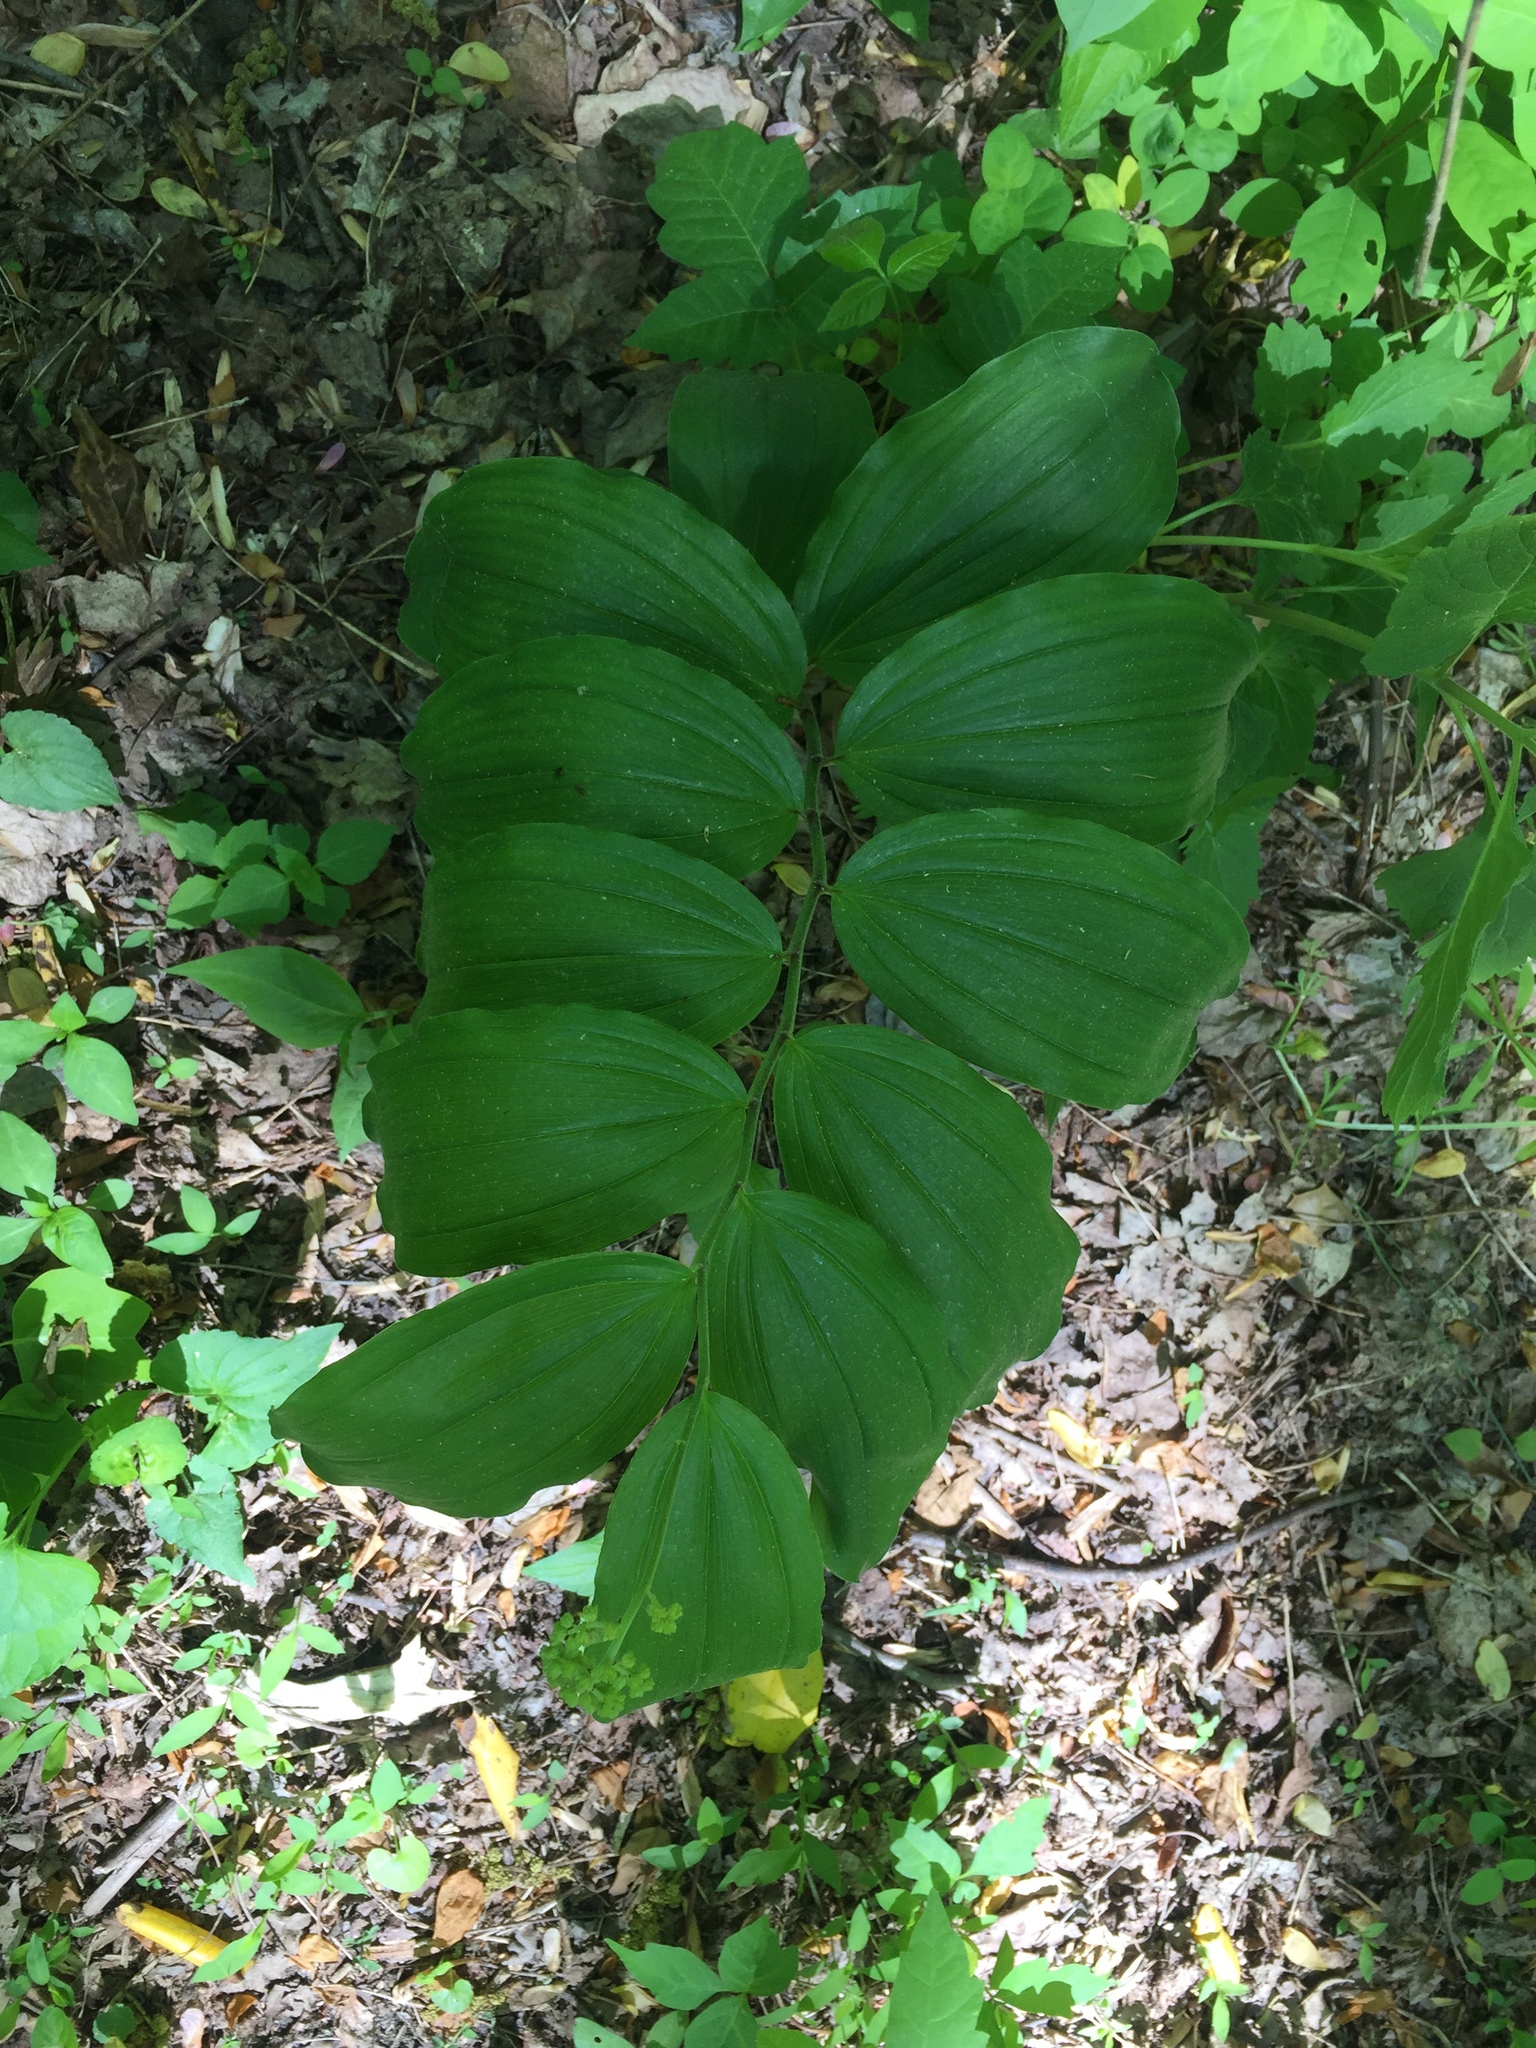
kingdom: Plantae
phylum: Tracheophyta
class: Liliopsida
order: Asparagales
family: Asparagaceae
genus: Maianthemum
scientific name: Maianthemum racemosum
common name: False spikenard
